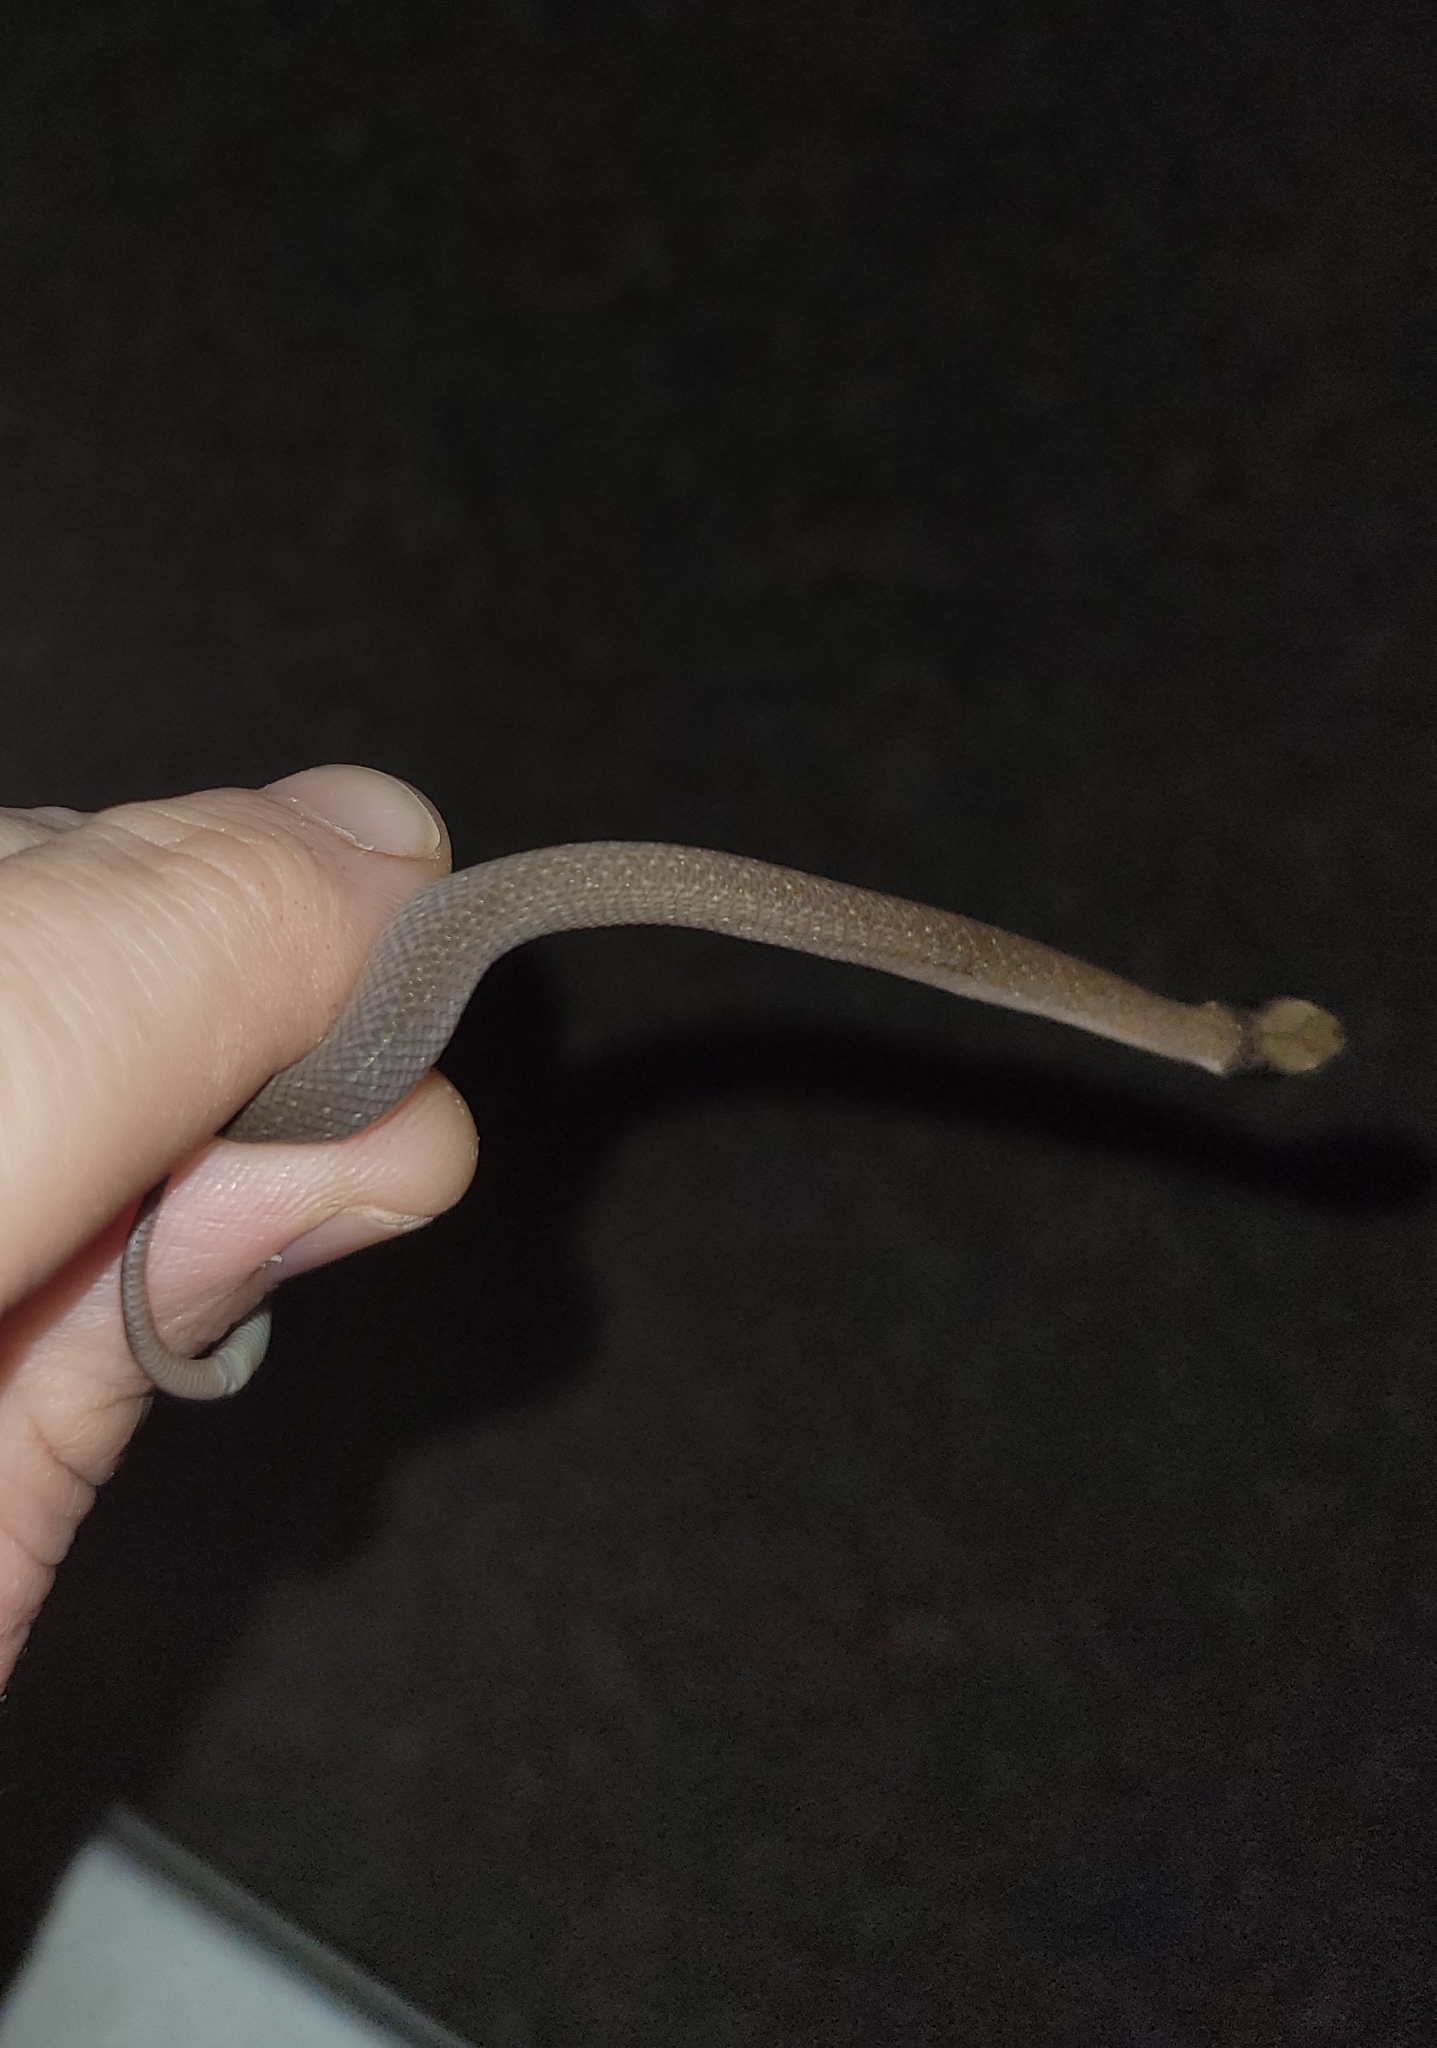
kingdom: Animalia
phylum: Chordata
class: Squamata
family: Colubridae
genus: Crotaphopeltis
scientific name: Crotaphopeltis hotamboeia
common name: Red-lipped snake
